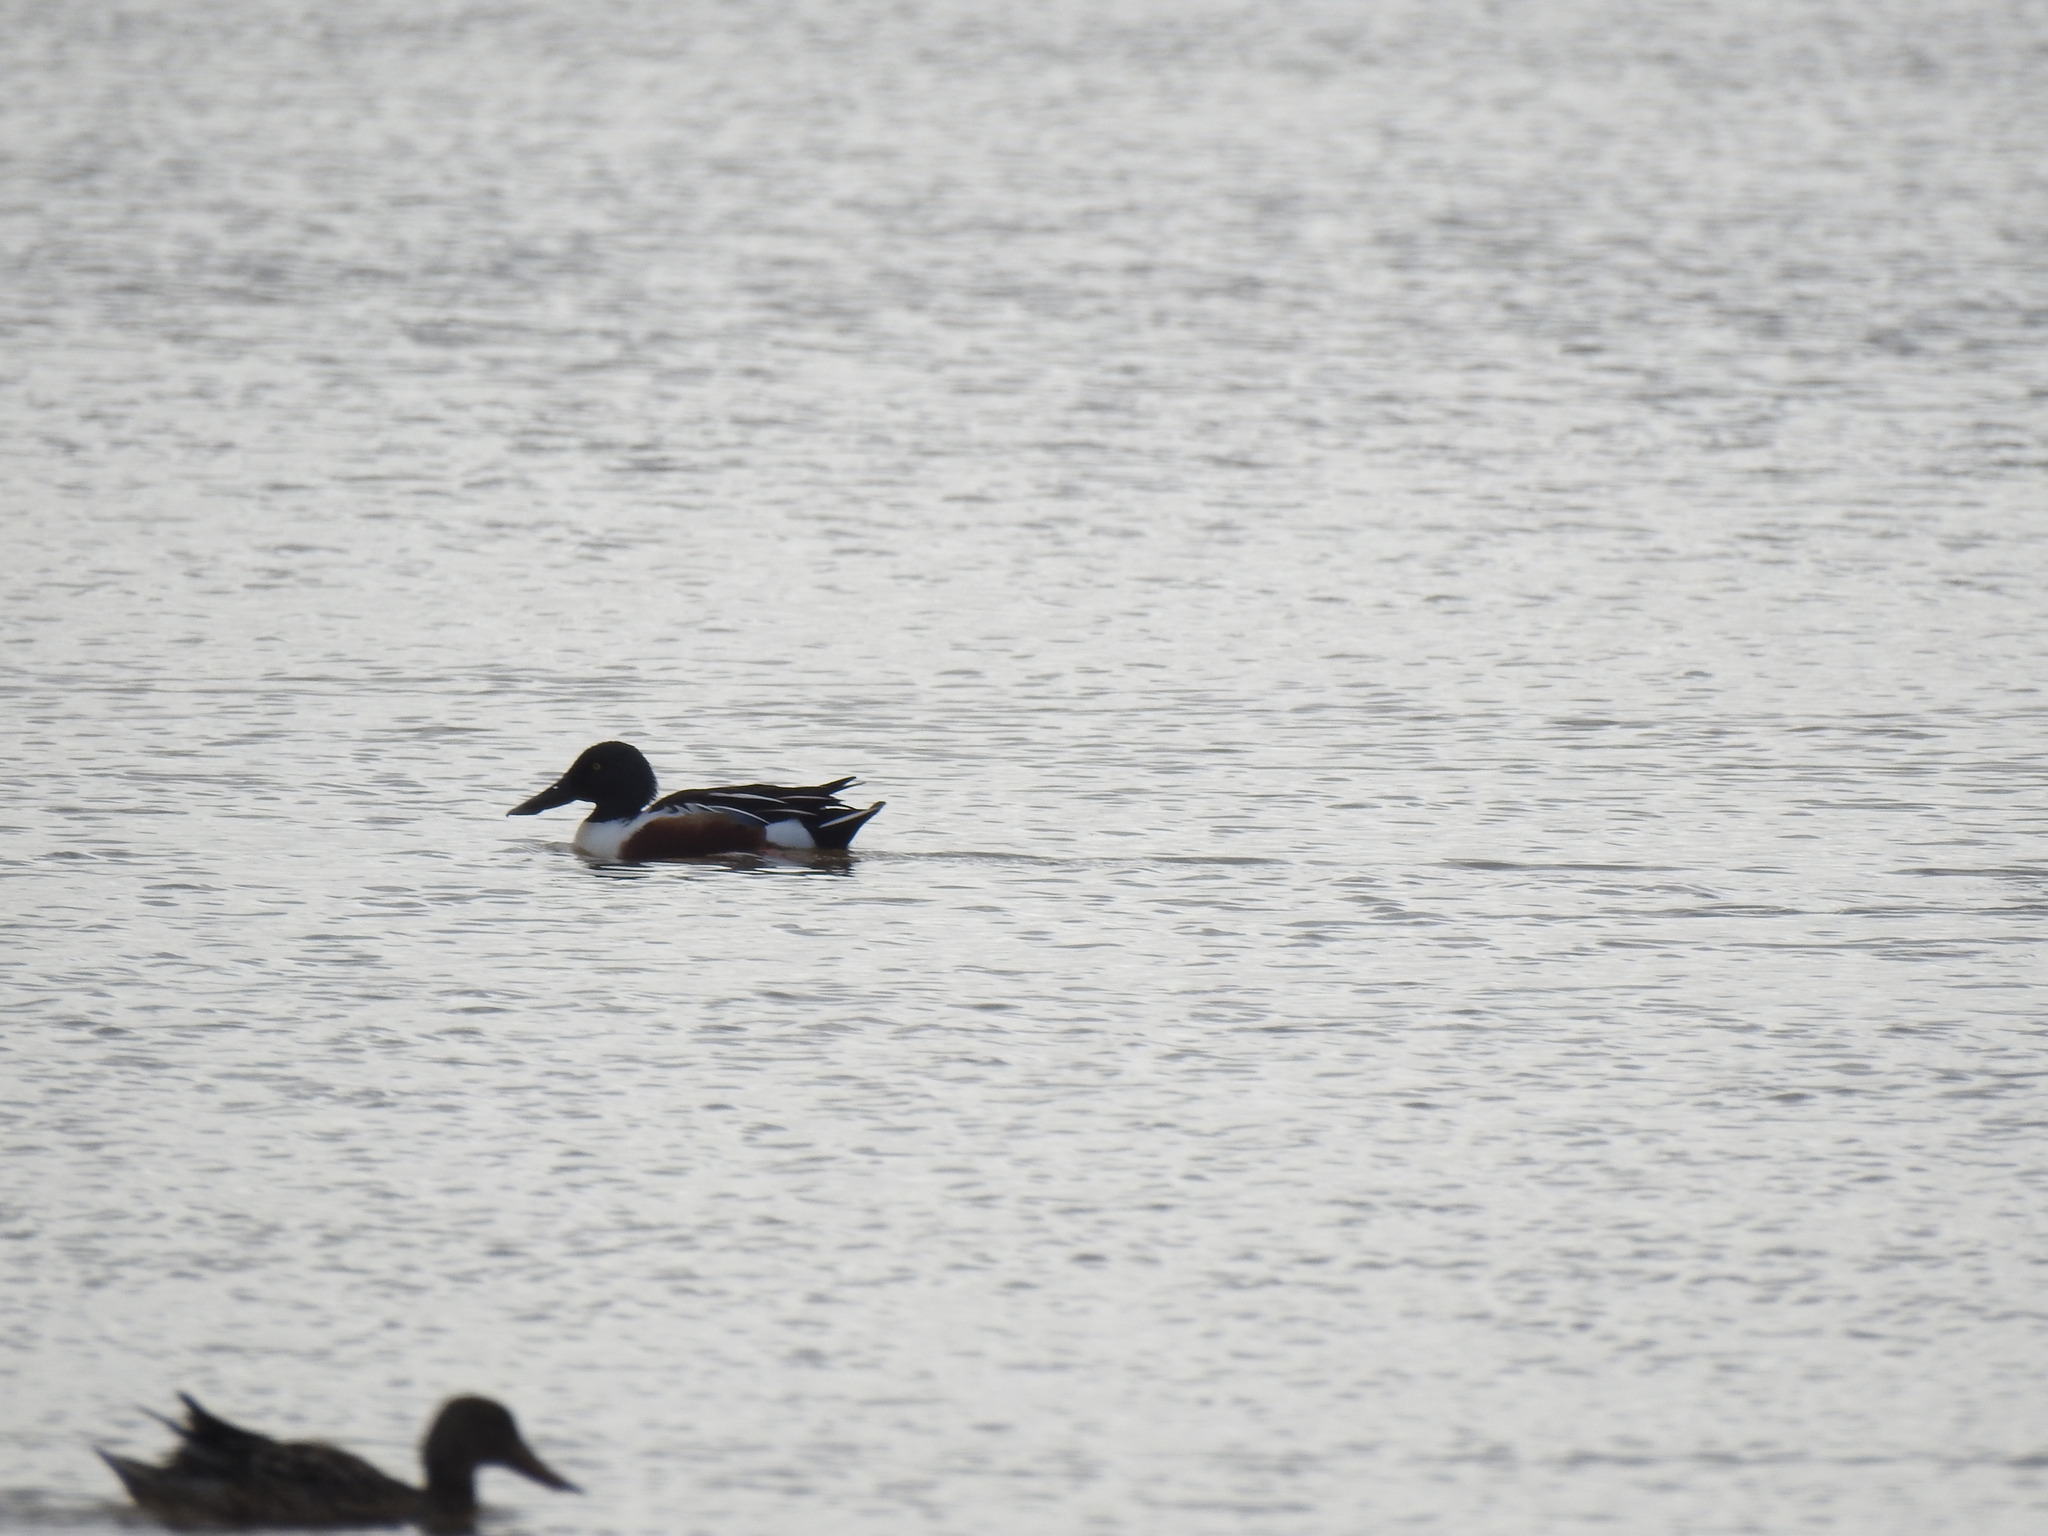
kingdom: Animalia
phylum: Chordata
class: Aves
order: Anseriformes
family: Anatidae
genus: Spatula
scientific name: Spatula clypeata
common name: Northern shoveler
